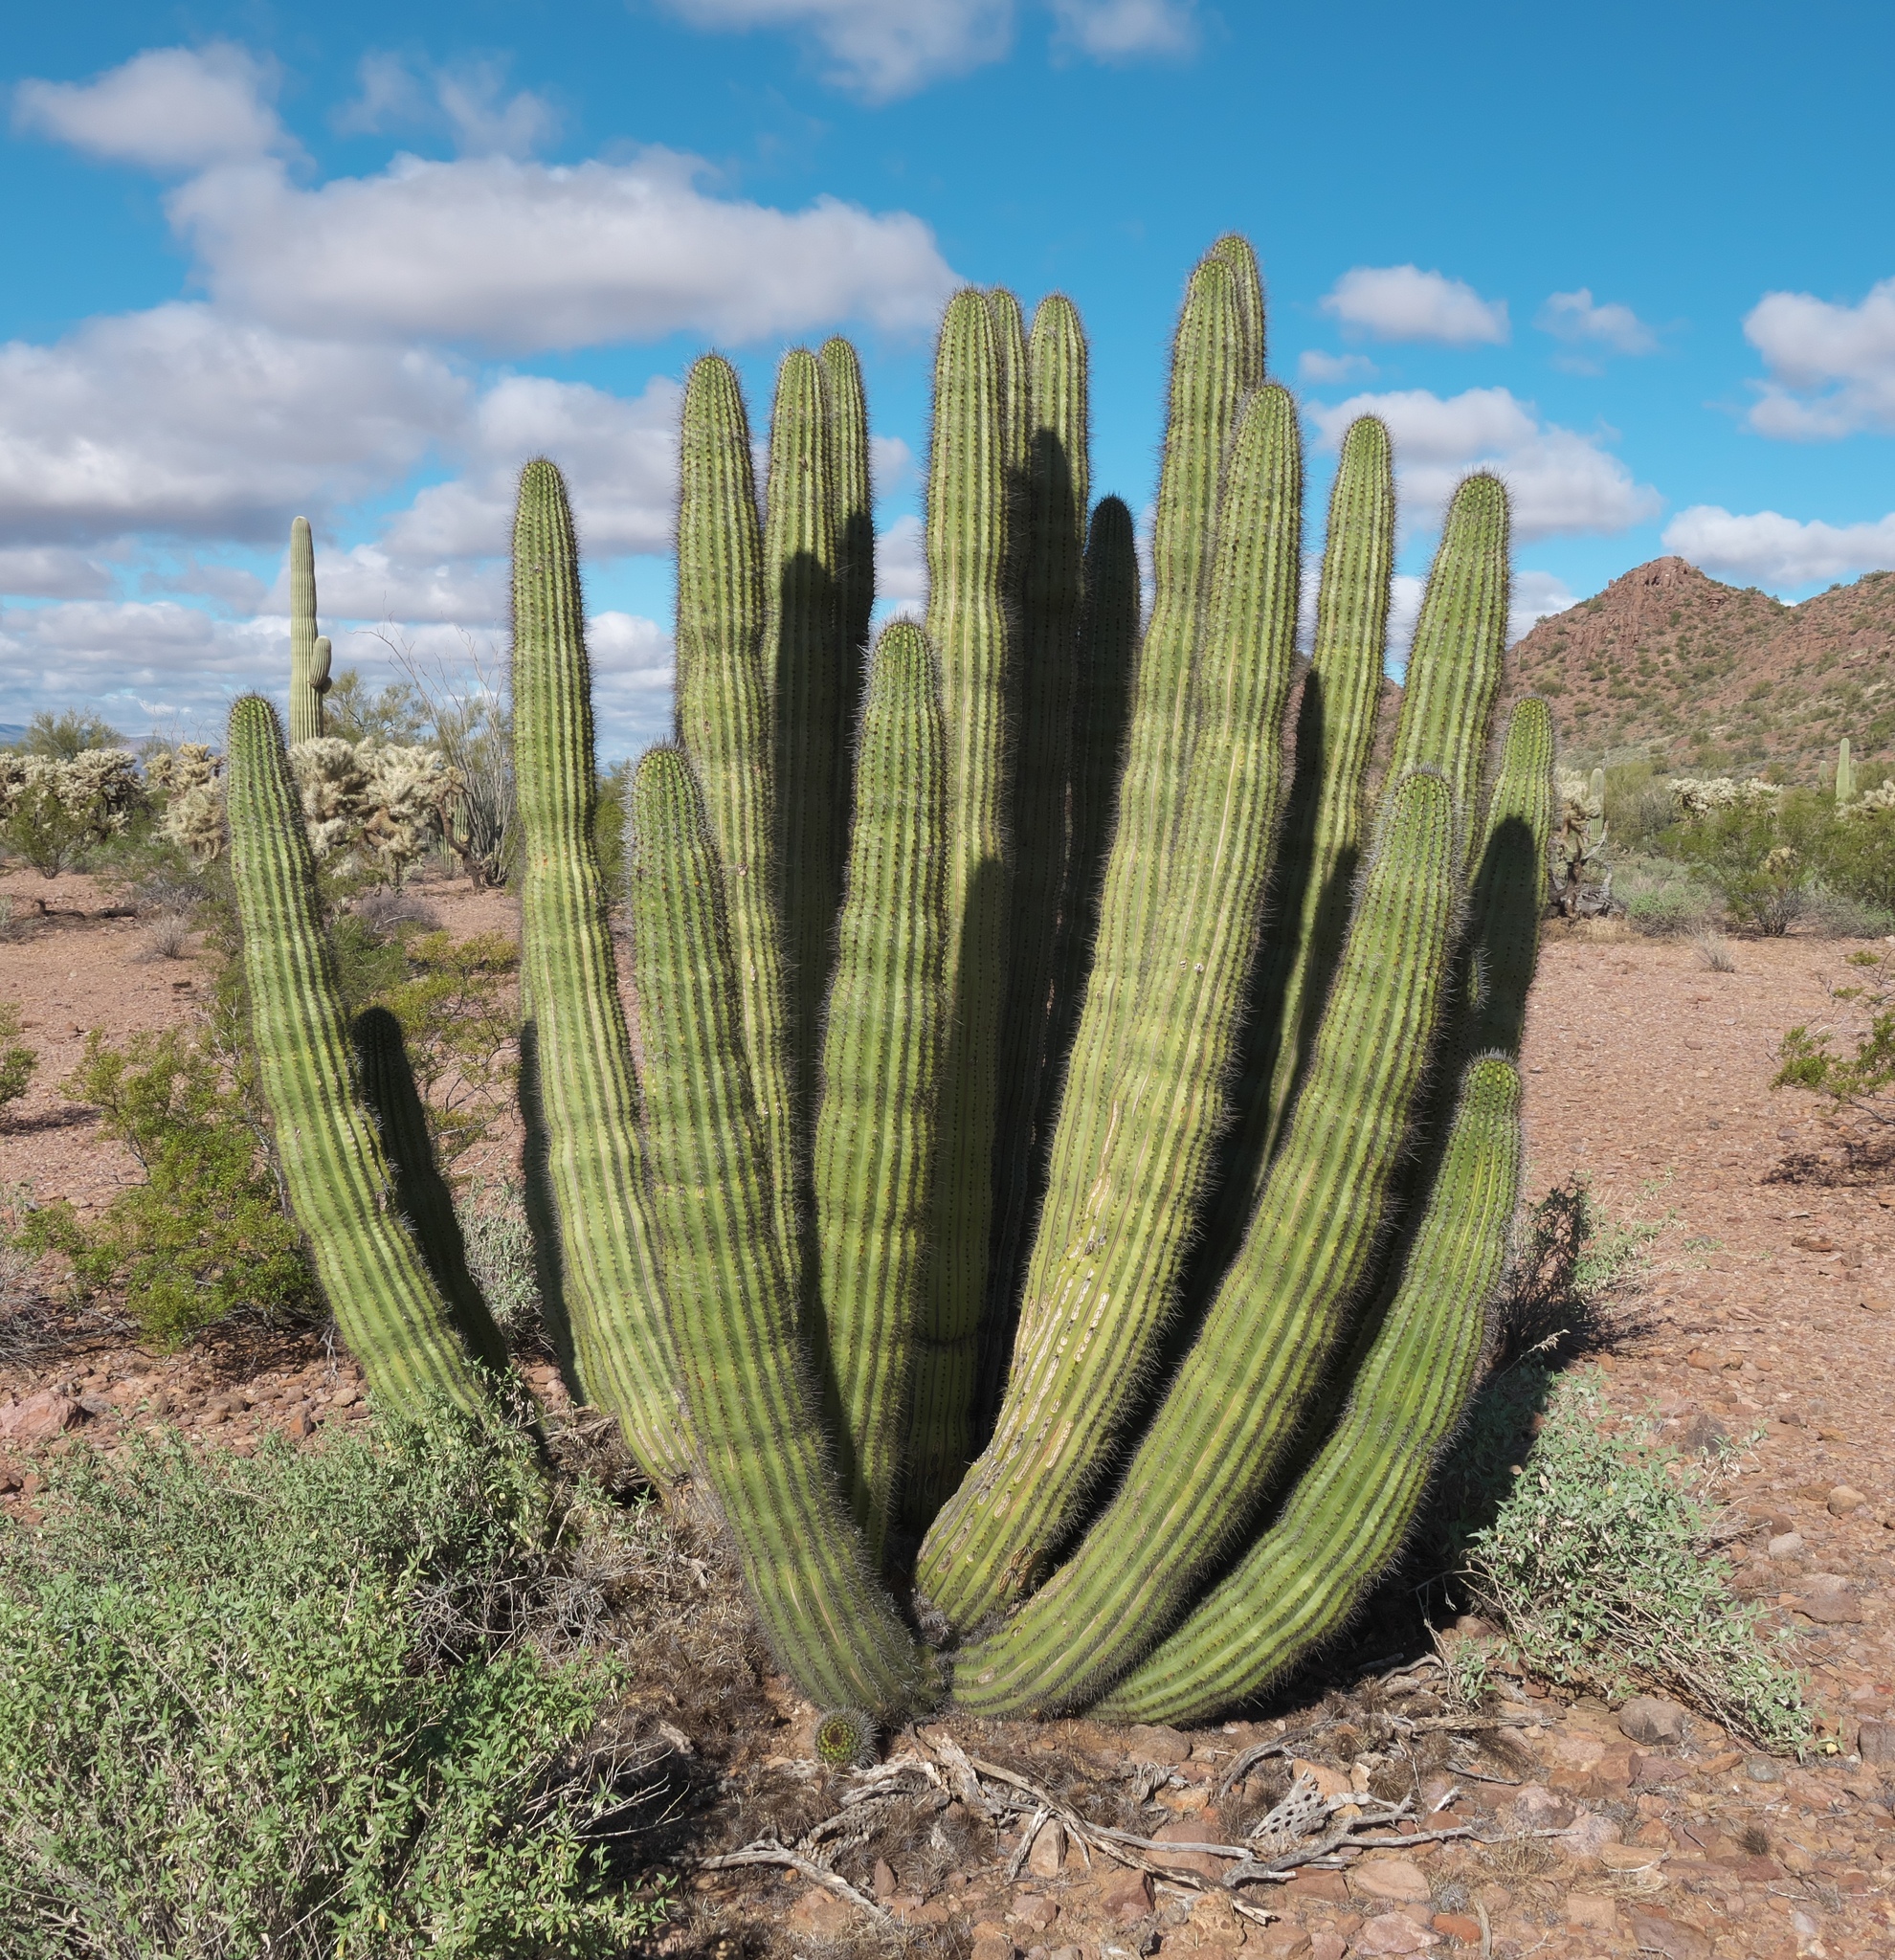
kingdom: Plantae
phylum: Tracheophyta
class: Magnoliopsida
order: Caryophyllales
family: Cactaceae
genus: Stenocereus
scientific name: Stenocereus thurberi
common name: Organ pipe cactus
